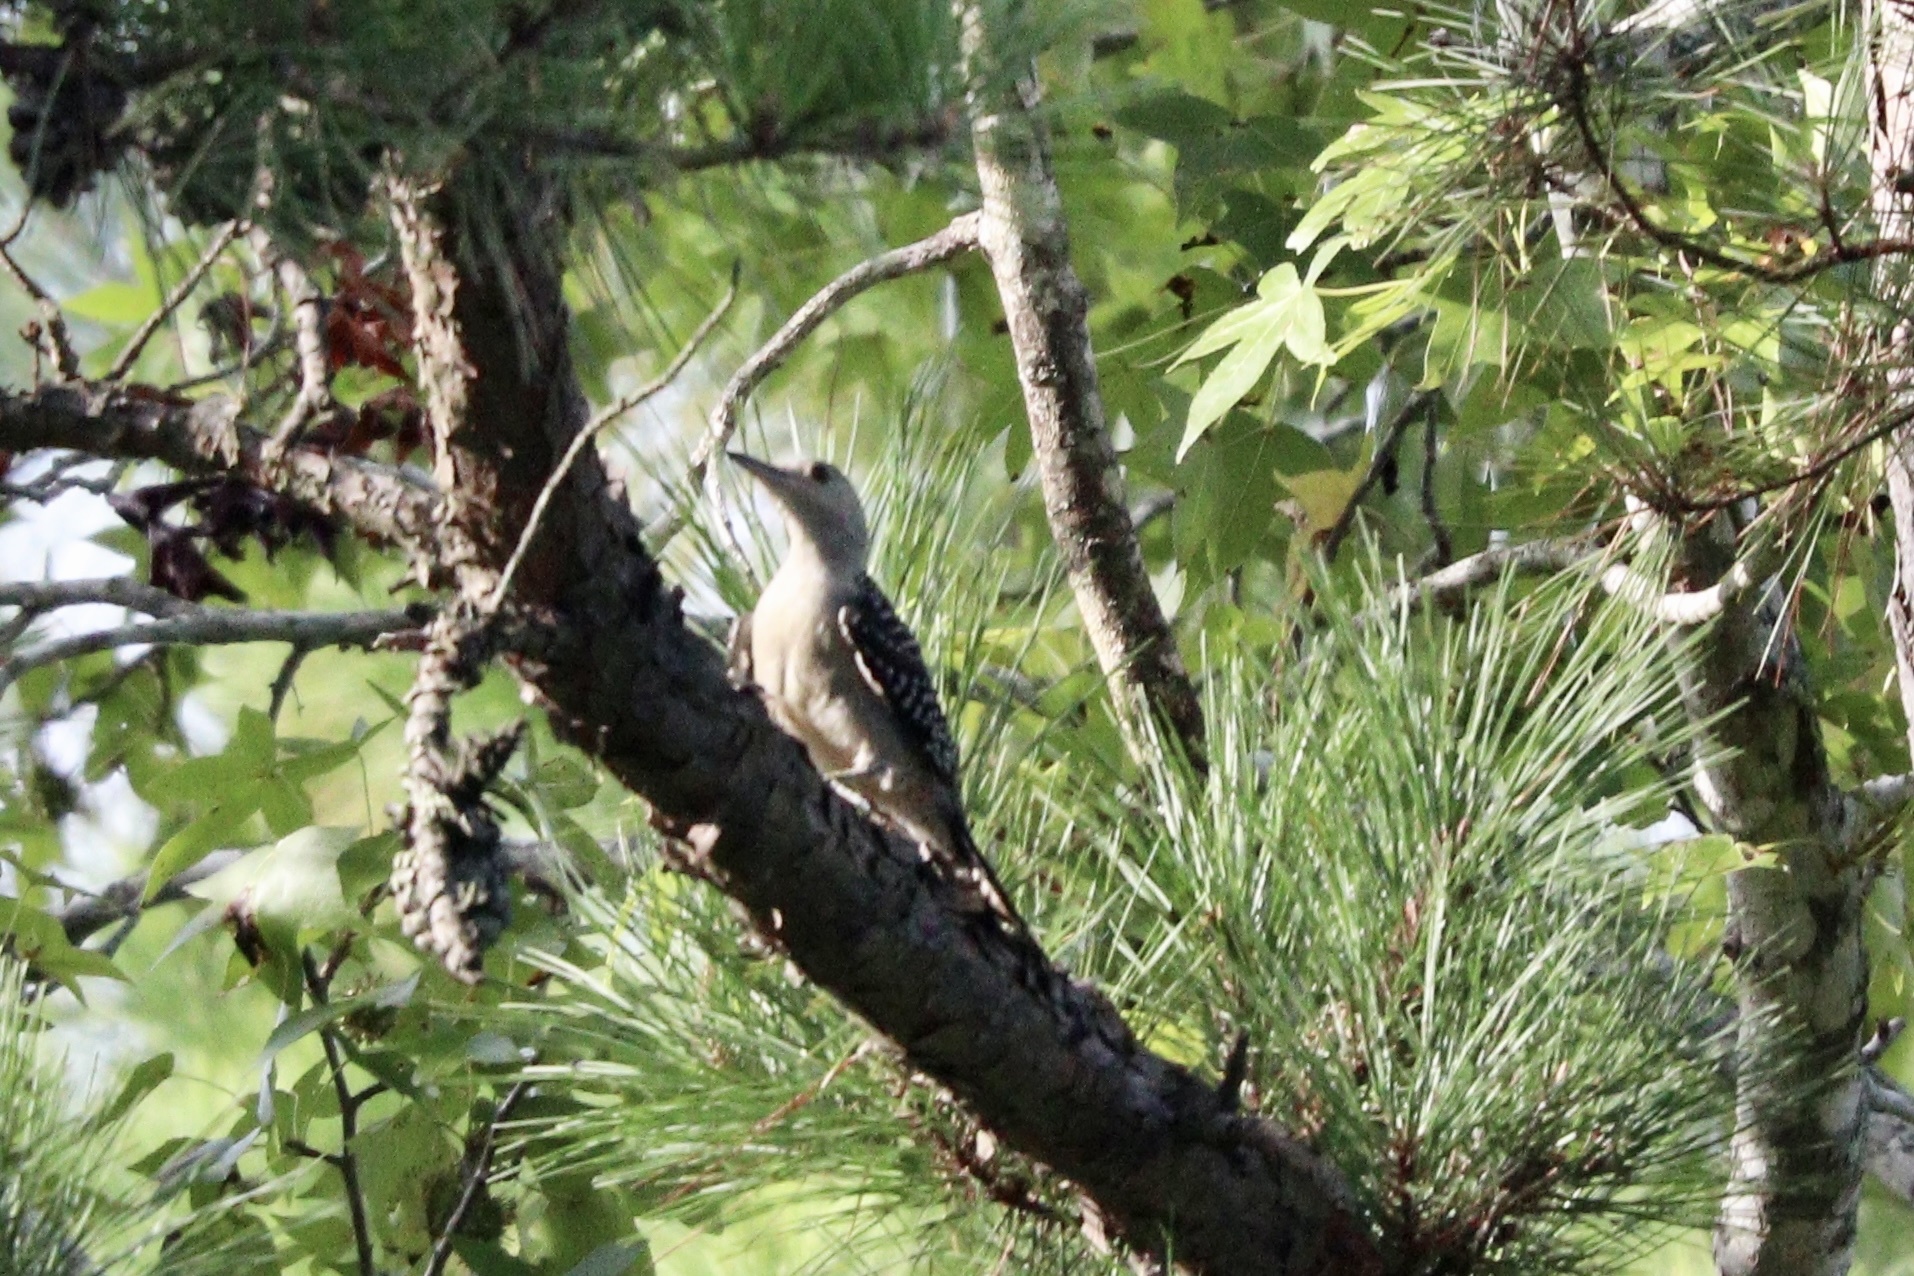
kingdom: Animalia
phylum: Chordata
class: Aves
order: Piciformes
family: Picidae
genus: Melanerpes
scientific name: Melanerpes carolinus
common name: Red-bellied woodpecker
